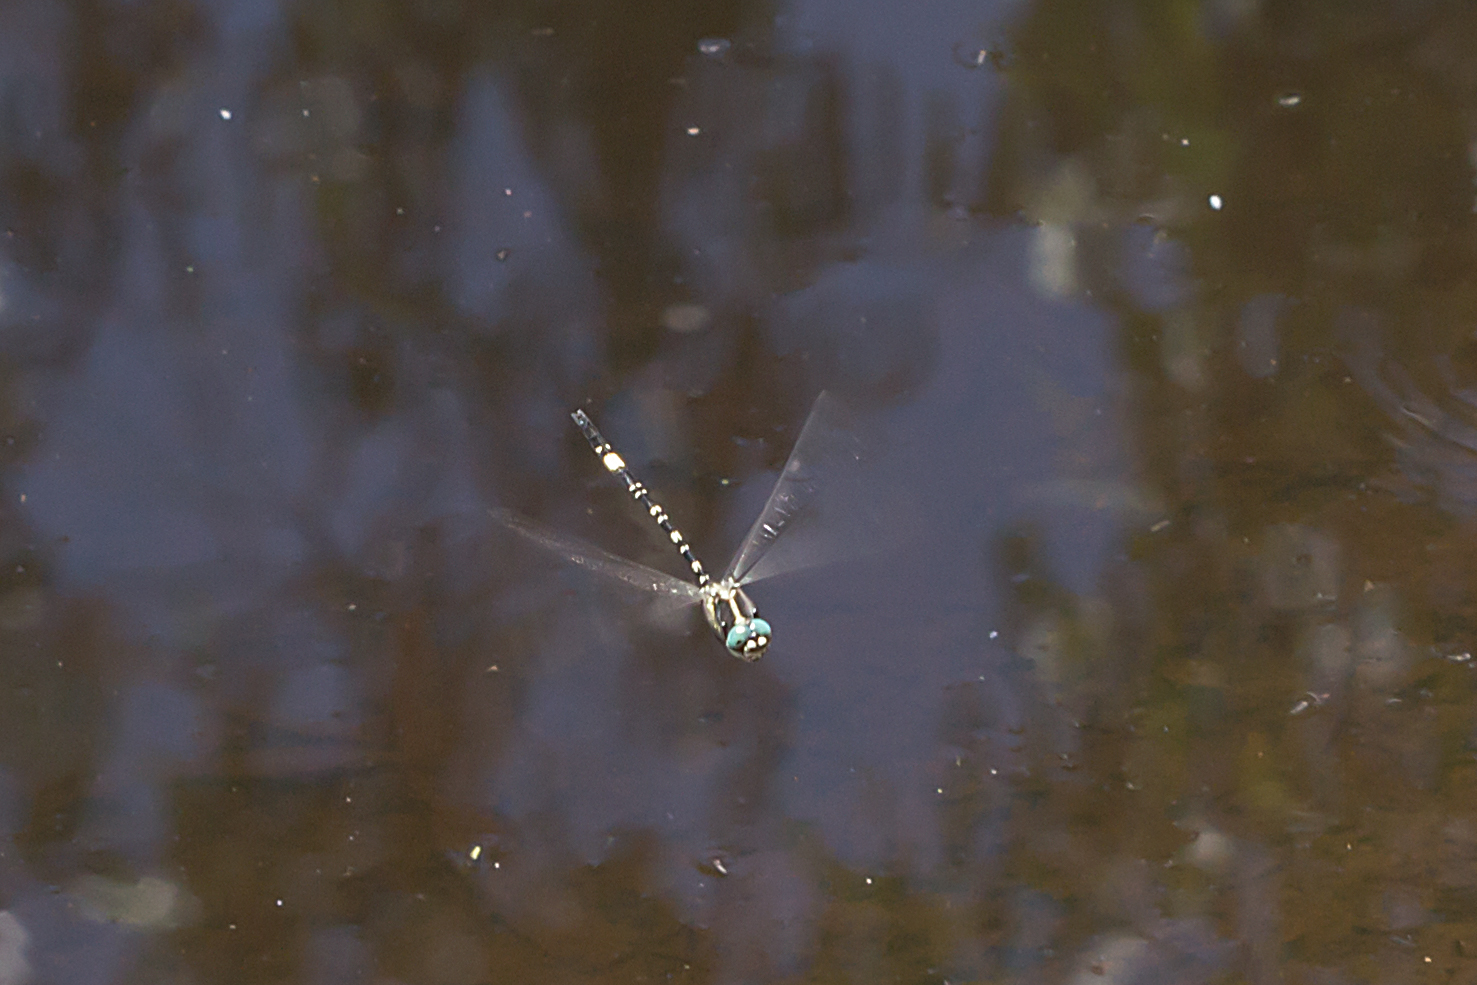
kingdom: Animalia
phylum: Arthropoda
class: Insecta
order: Odonata
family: Synthemistidae
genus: Parasynthemis
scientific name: Parasynthemis regina
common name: Royal tigertail
